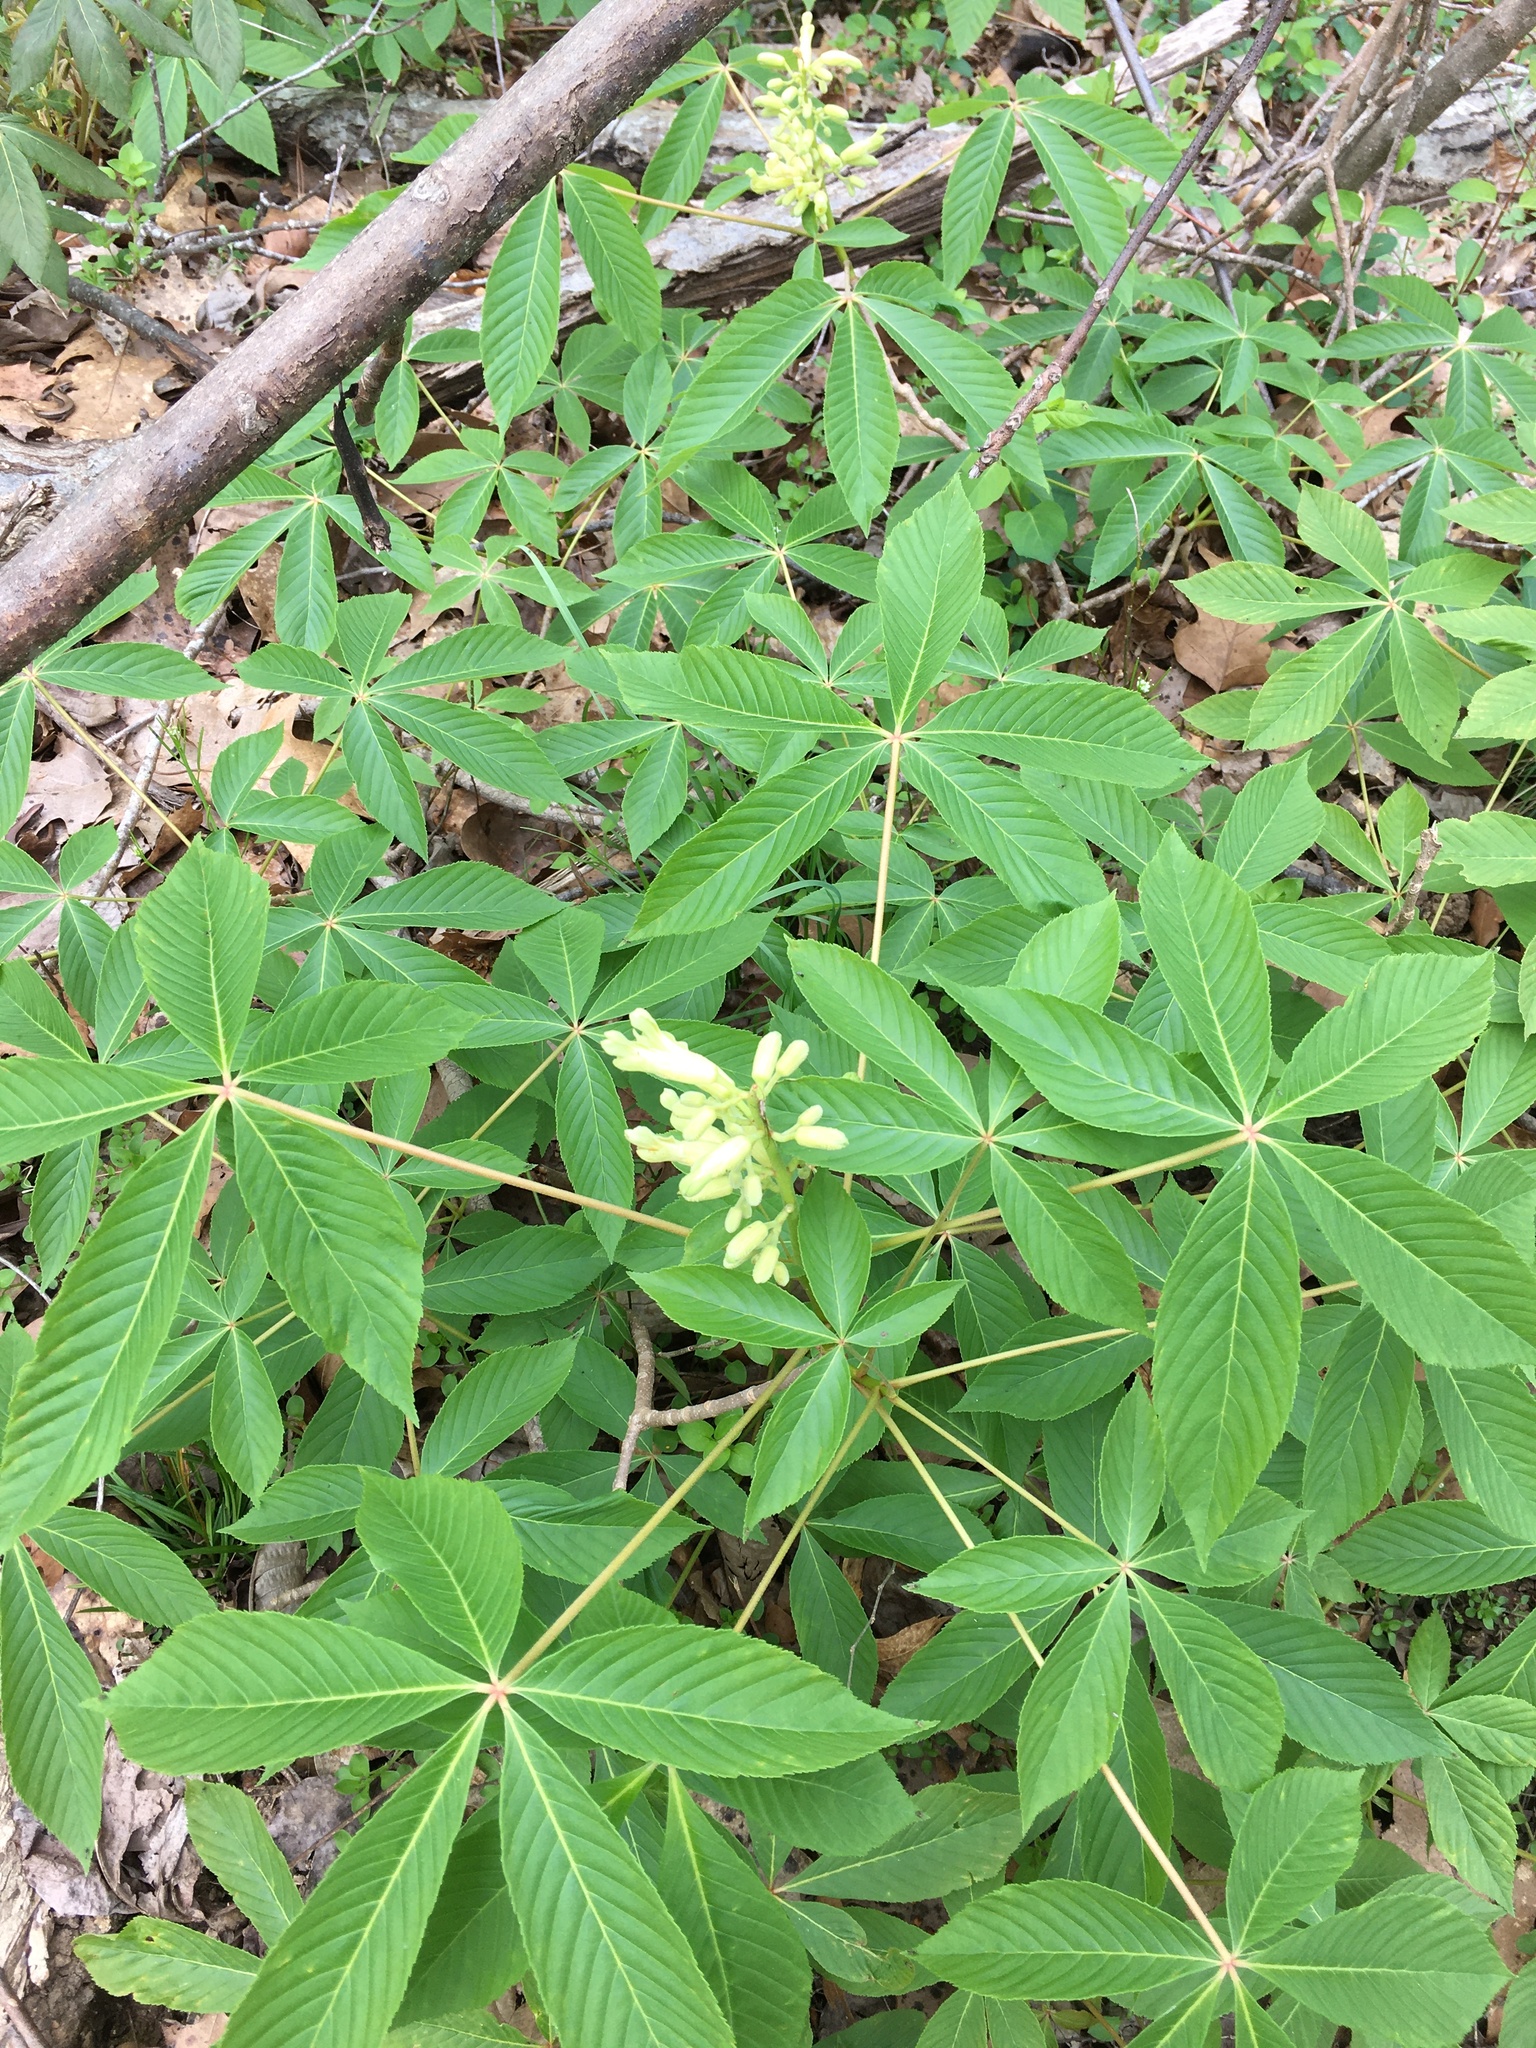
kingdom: Plantae
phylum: Tracheophyta
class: Magnoliopsida
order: Sapindales
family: Sapindaceae
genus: Aesculus
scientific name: Aesculus sylvatica
